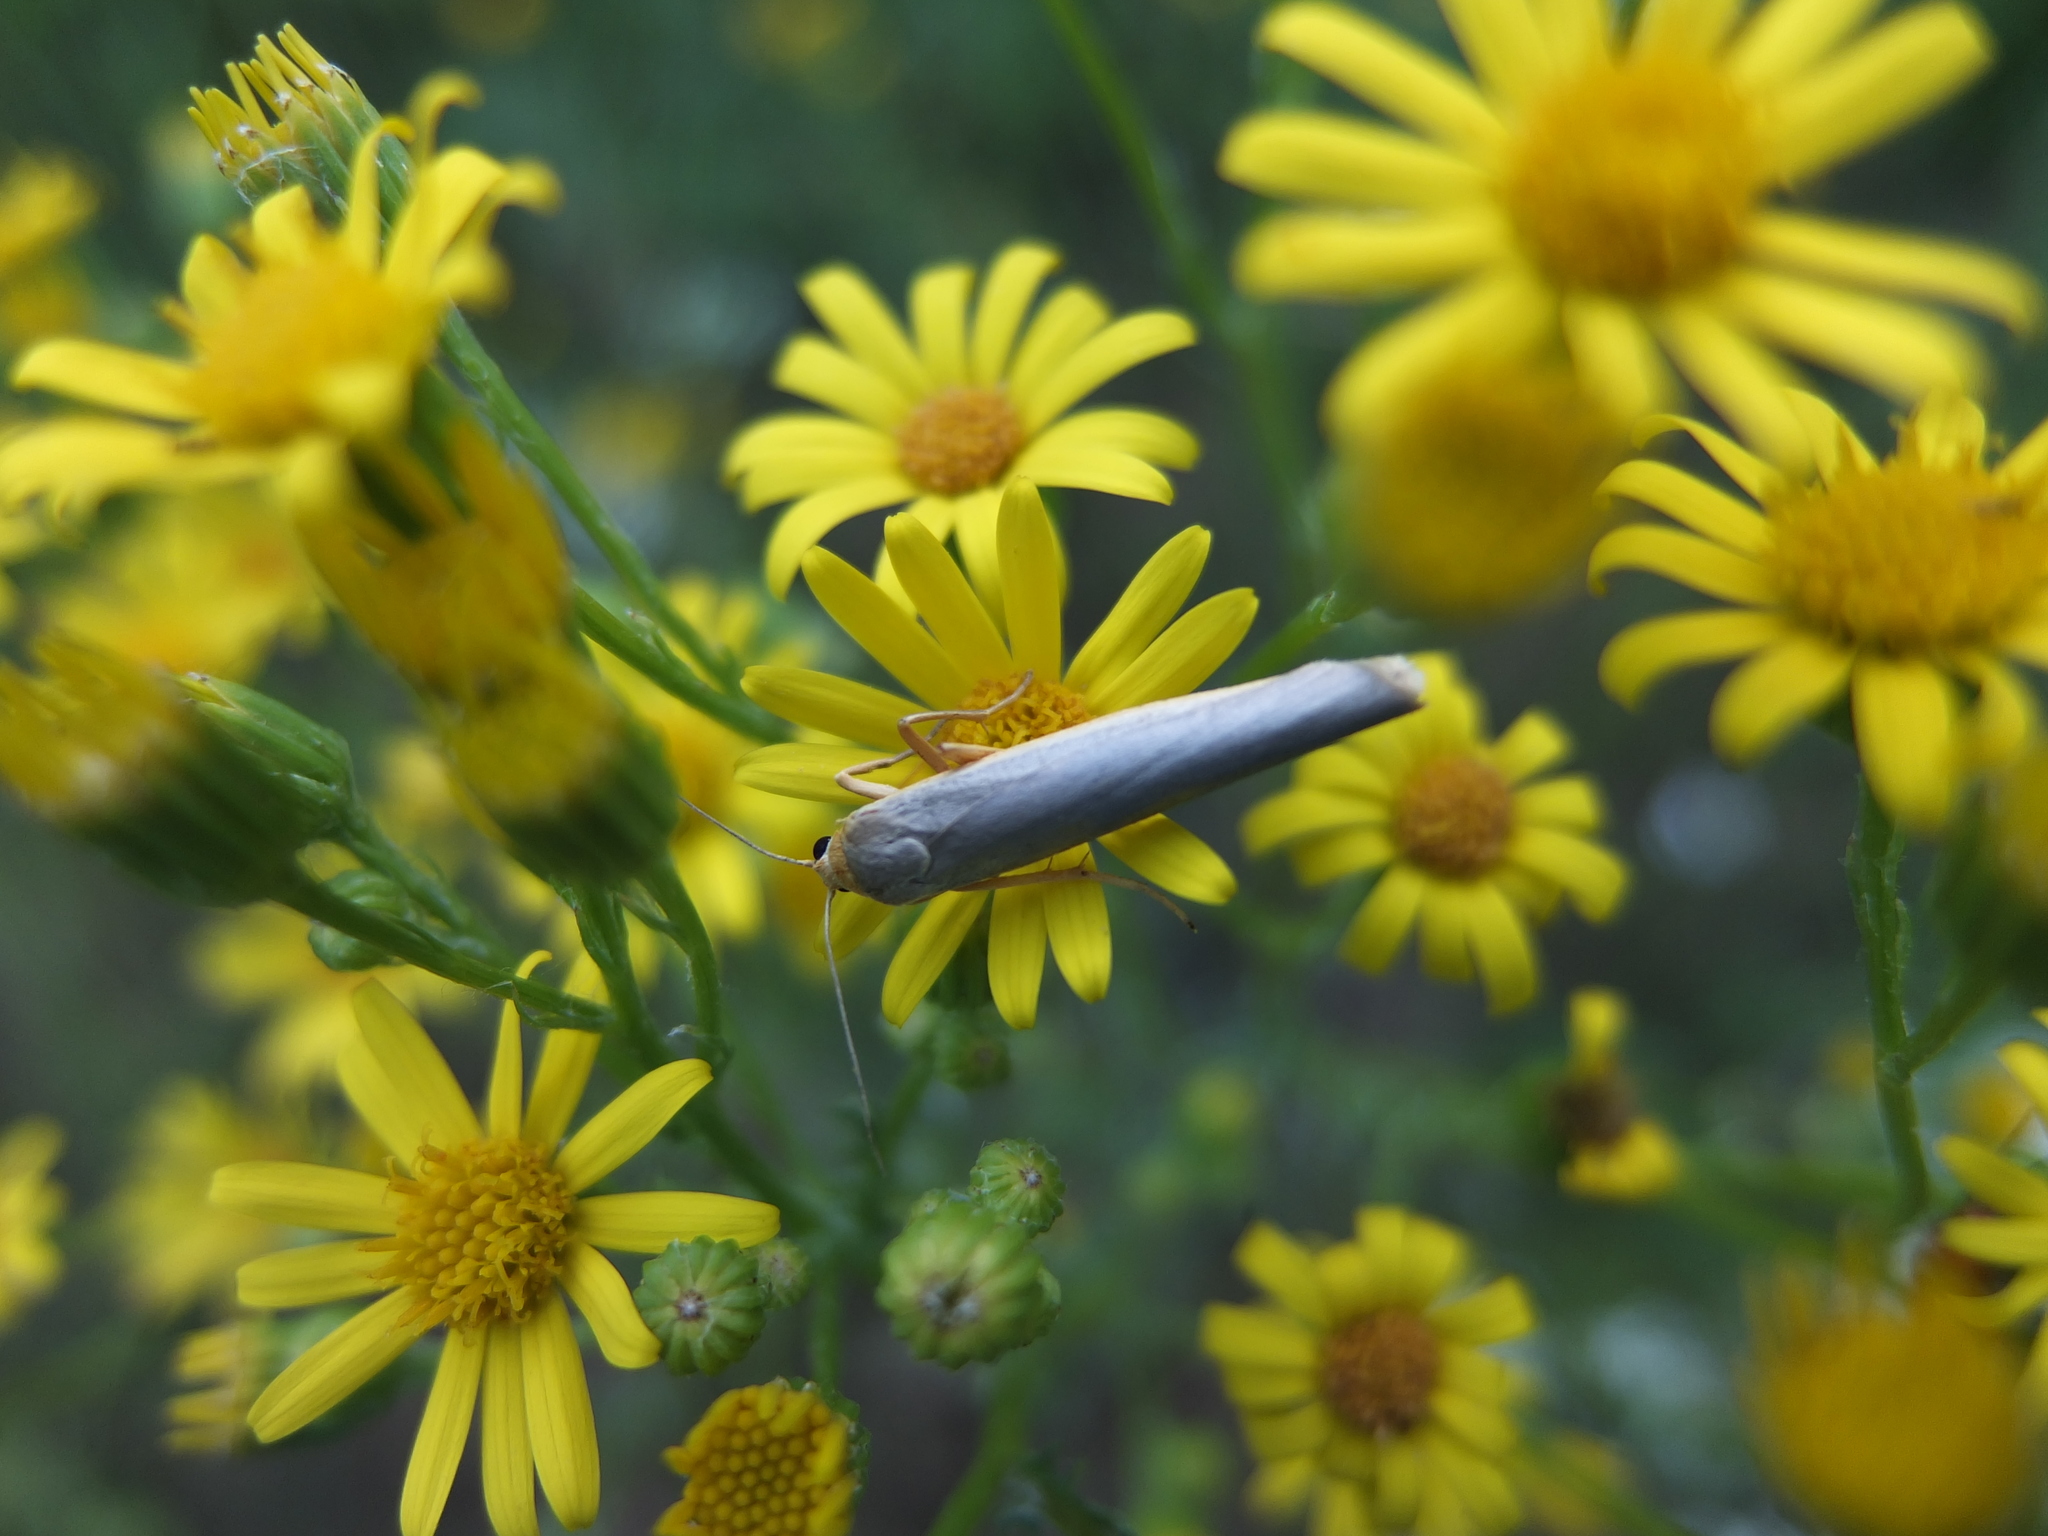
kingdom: Animalia
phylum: Arthropoda
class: Insecta
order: Lepidoptera
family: Erebidae
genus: Manulea
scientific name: Manulea complana
